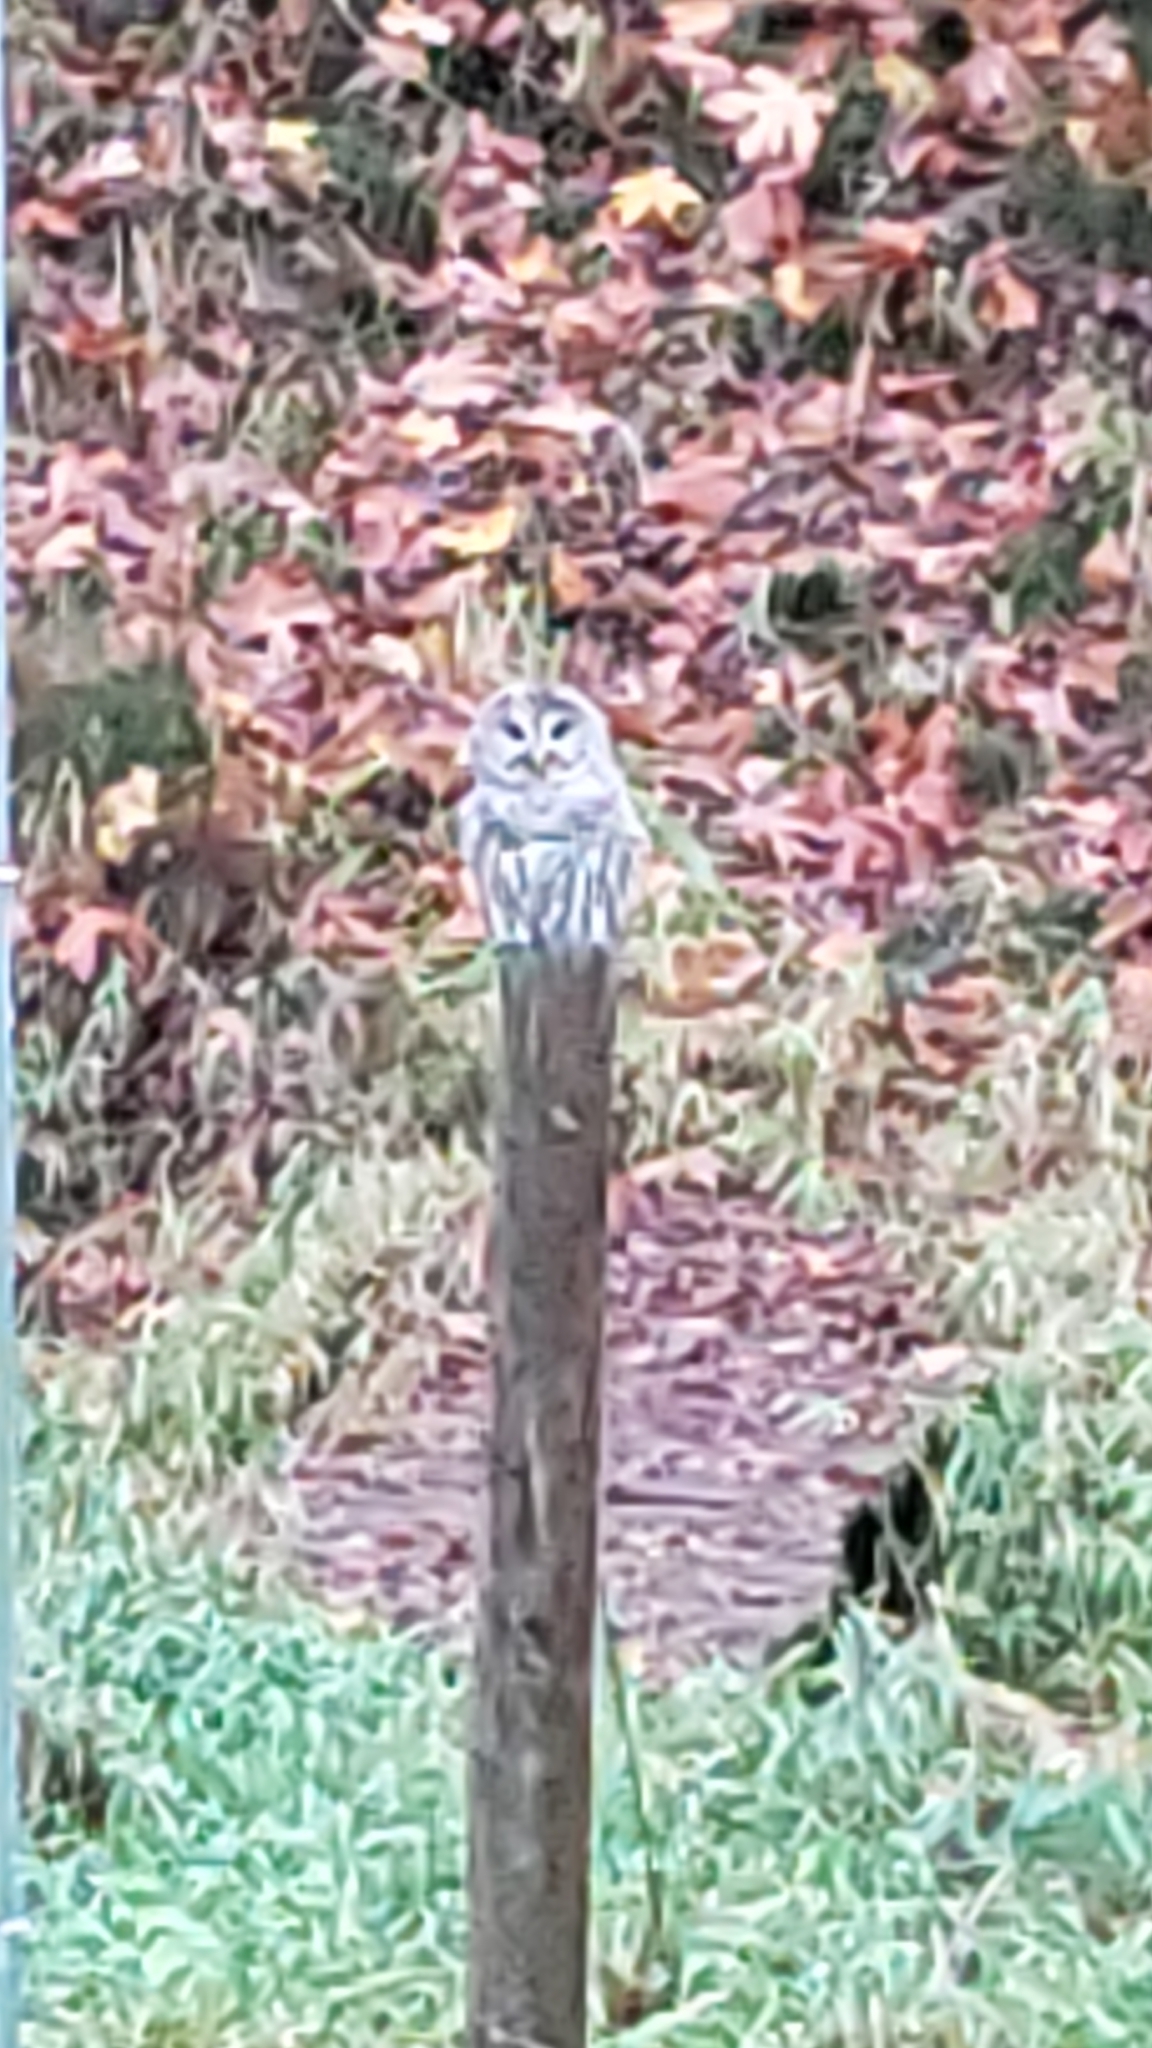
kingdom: Animalia
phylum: Chordata
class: Aves
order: Strigiformes
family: Strigidae
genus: Strix
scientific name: Strix varia
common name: Barred owl
